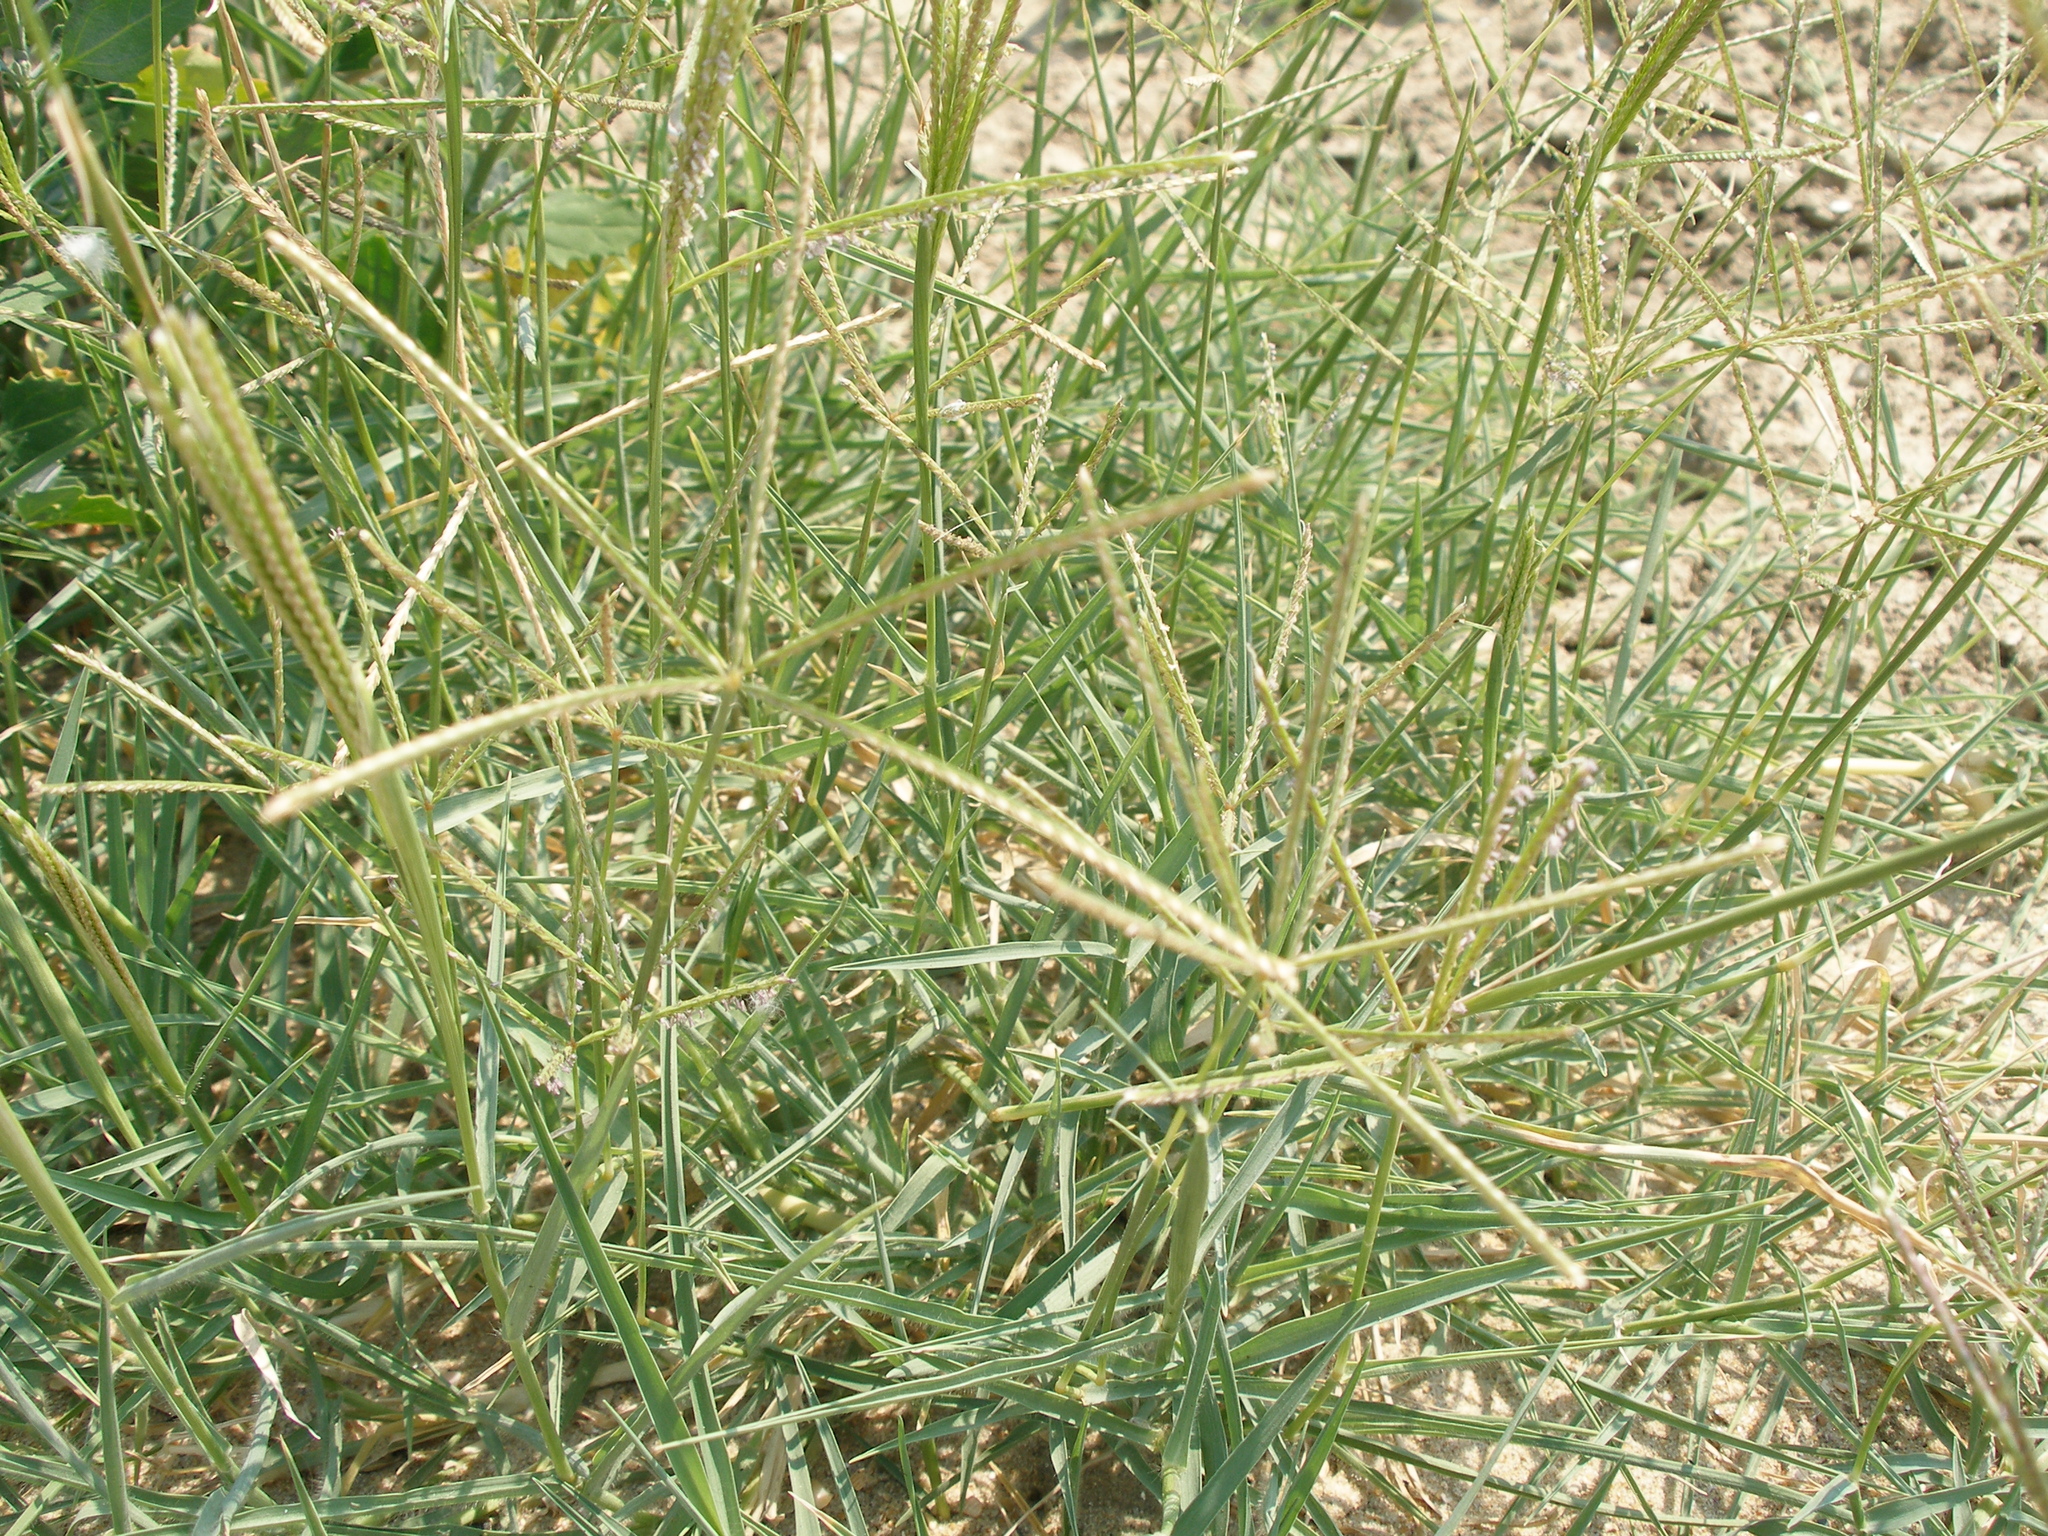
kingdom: Plantae
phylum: Tracheophyta
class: Liliopsida
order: Poales
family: Poaceae
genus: Cynodon
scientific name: Cynodon dactylon
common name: Bermuda grass
